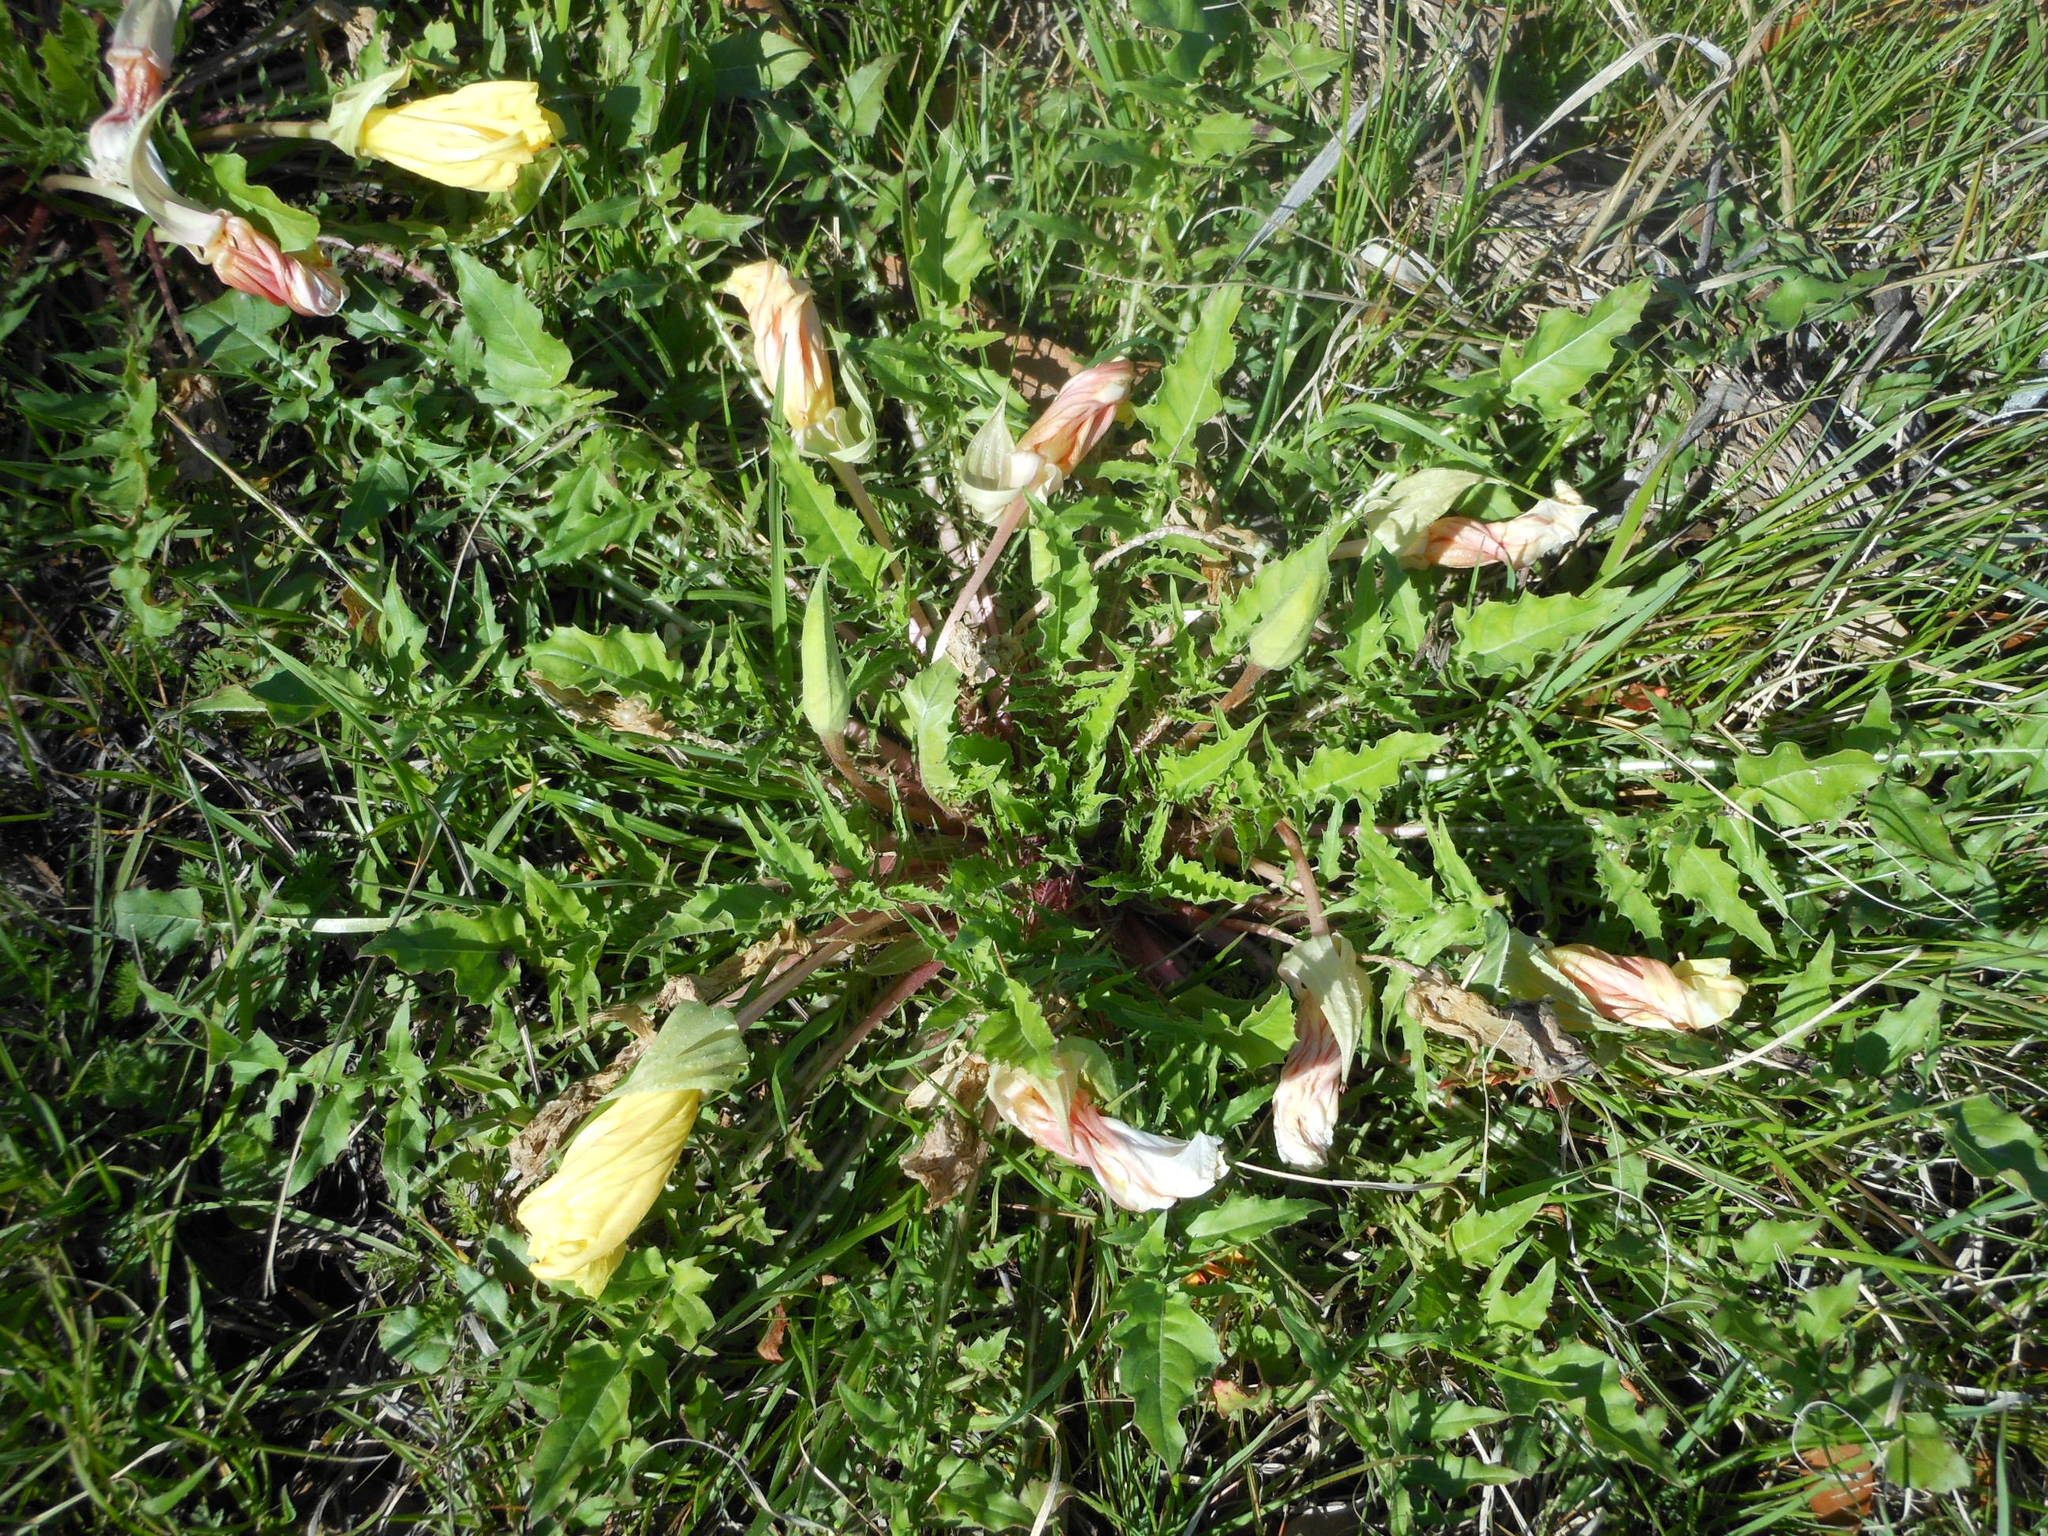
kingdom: Plantae
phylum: Tracheophyta
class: Magnoliopsida
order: Myrtales
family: Onagraceae
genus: Oenothera
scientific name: Oenothera triloba
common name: Sessile evening-primrose
